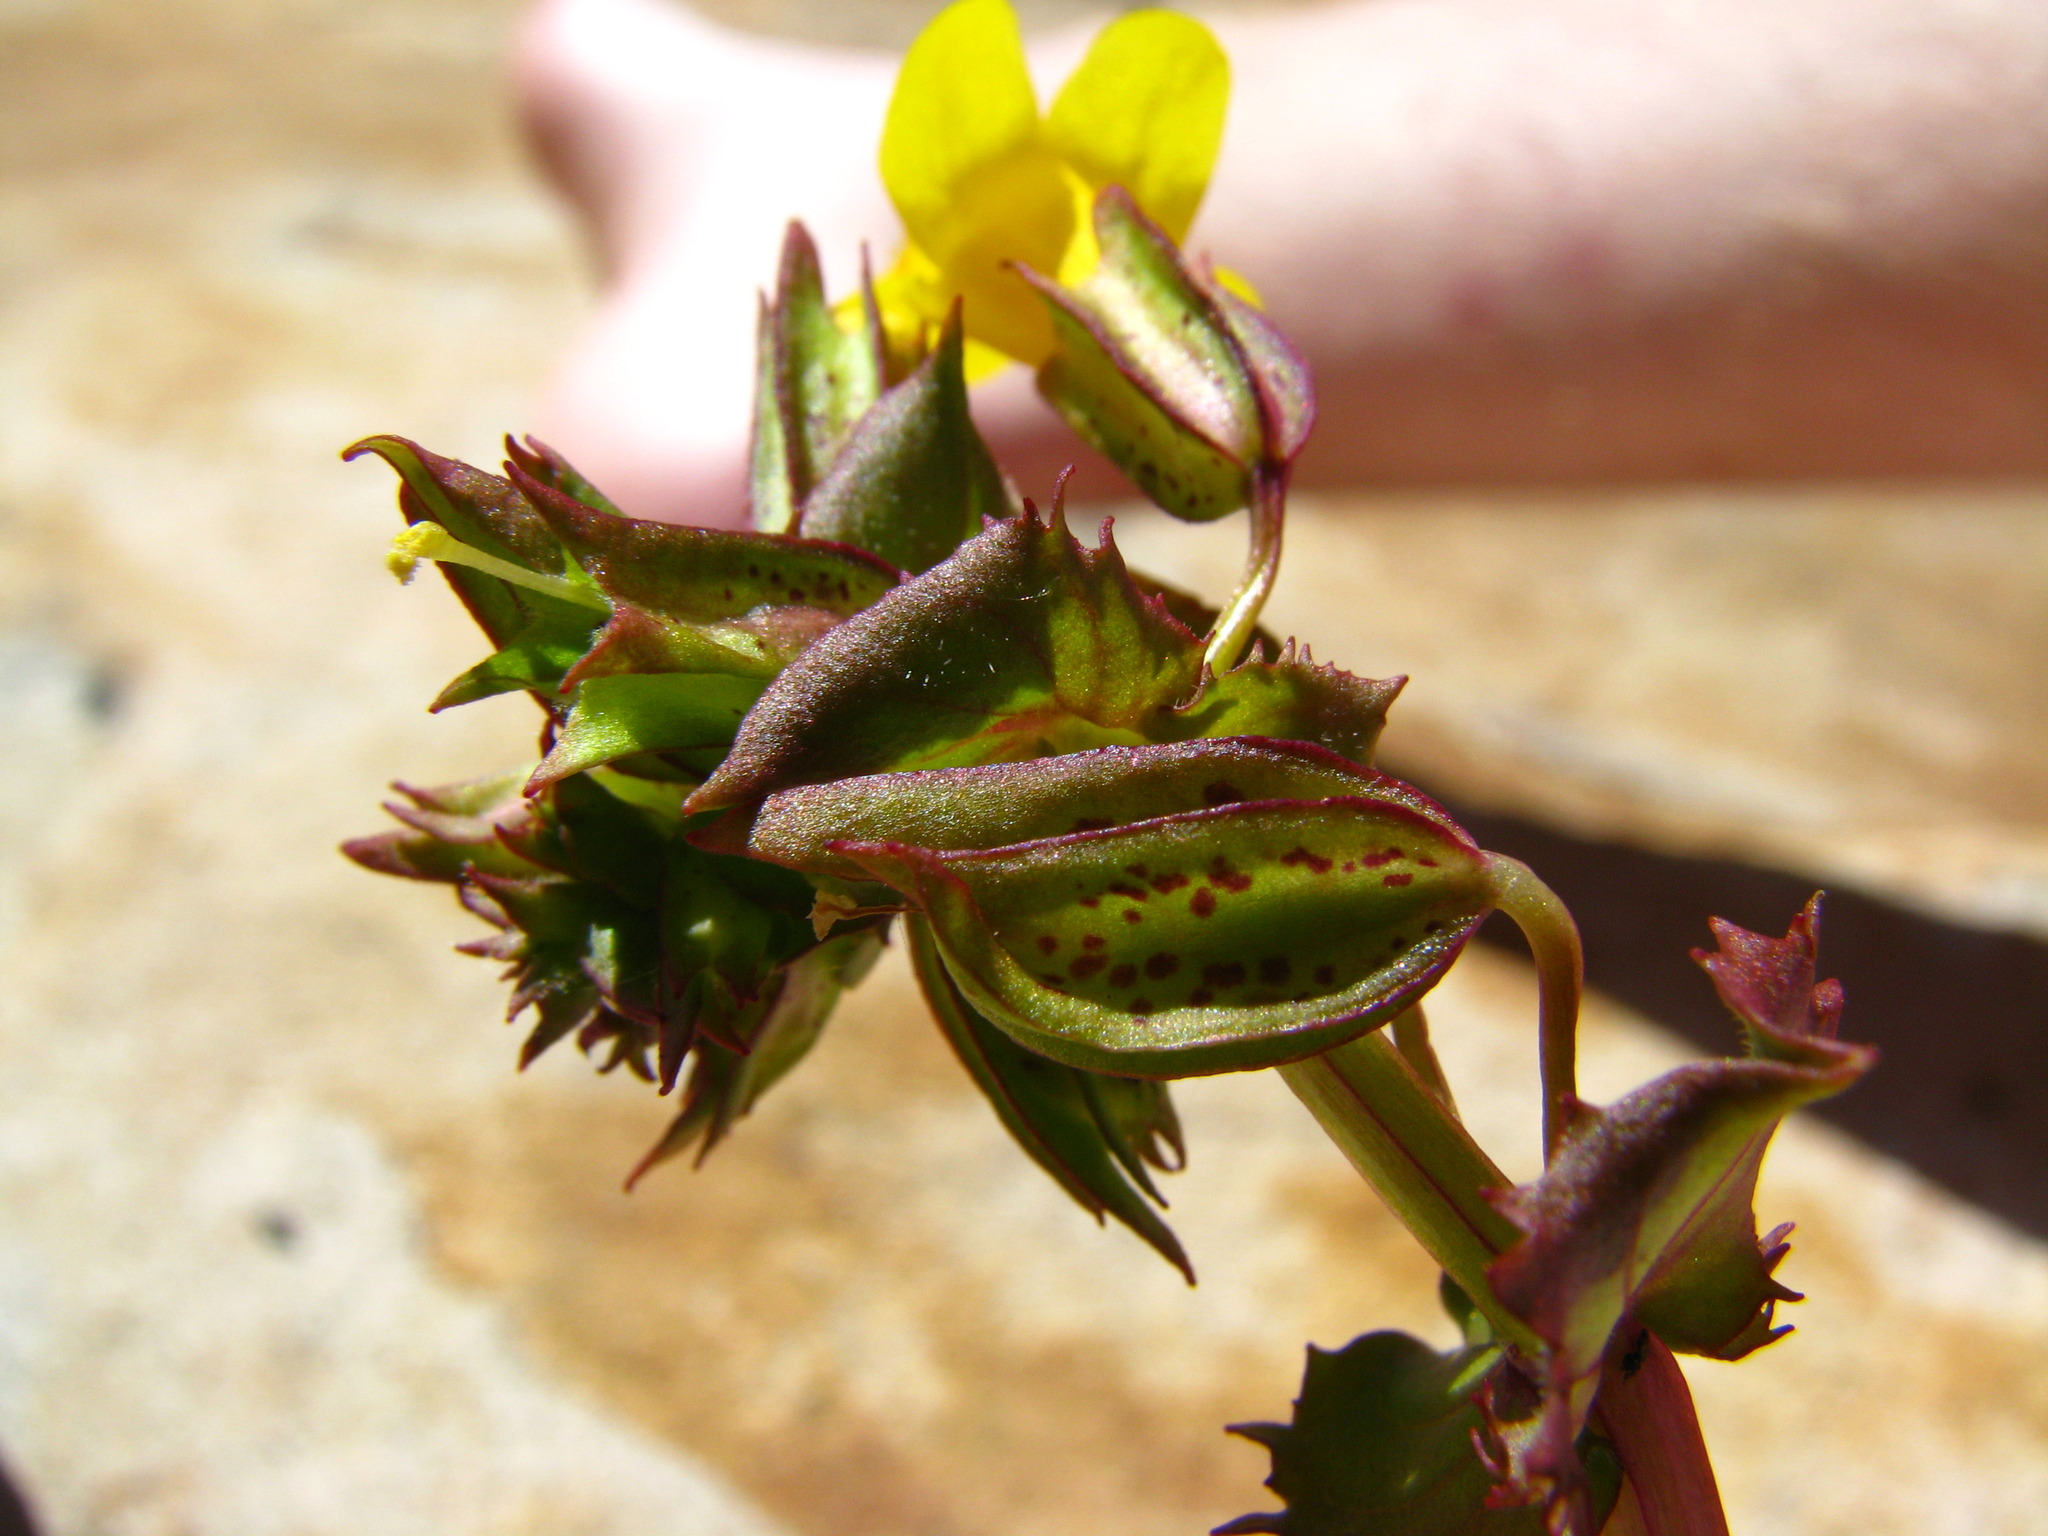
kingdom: Plantae
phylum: Tracheophyta
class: Magnoliopsida
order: Lamiales
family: Phrymaceae
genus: Erythranthe
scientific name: Erythranthe nasuta
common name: Sooke monkeyflower
